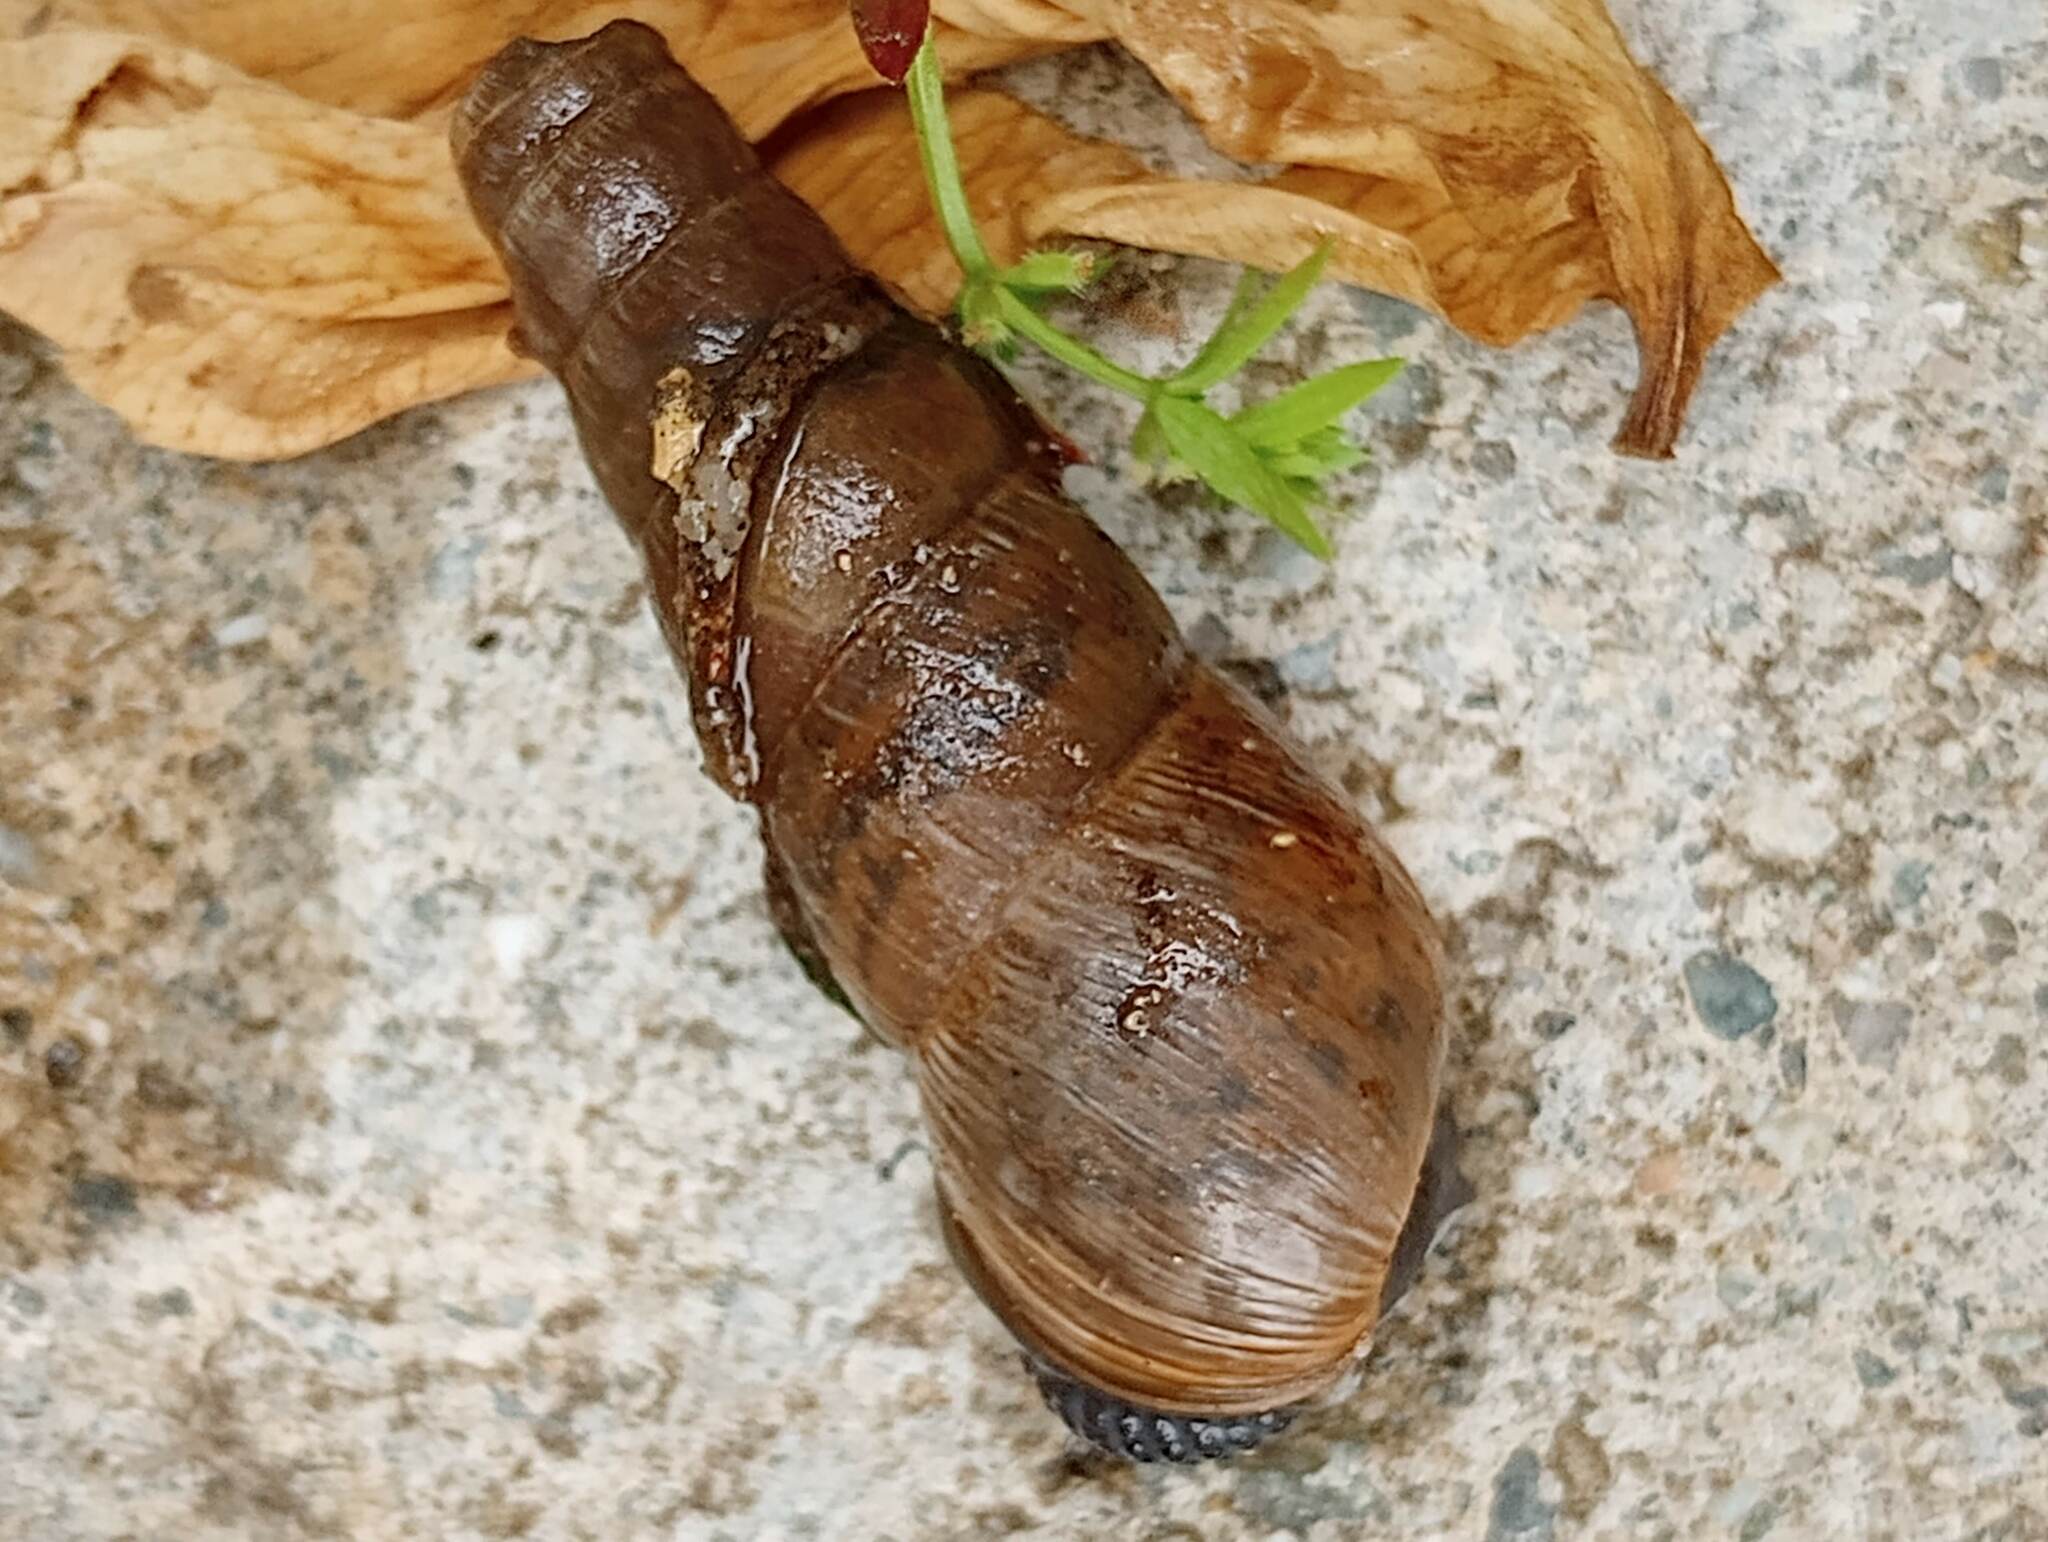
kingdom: Animalia
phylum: Mollusca
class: Gastropoda
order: Stylommatophora
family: Achatinidae
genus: Rumina
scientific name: Rumina decollata
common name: Decollate snail
